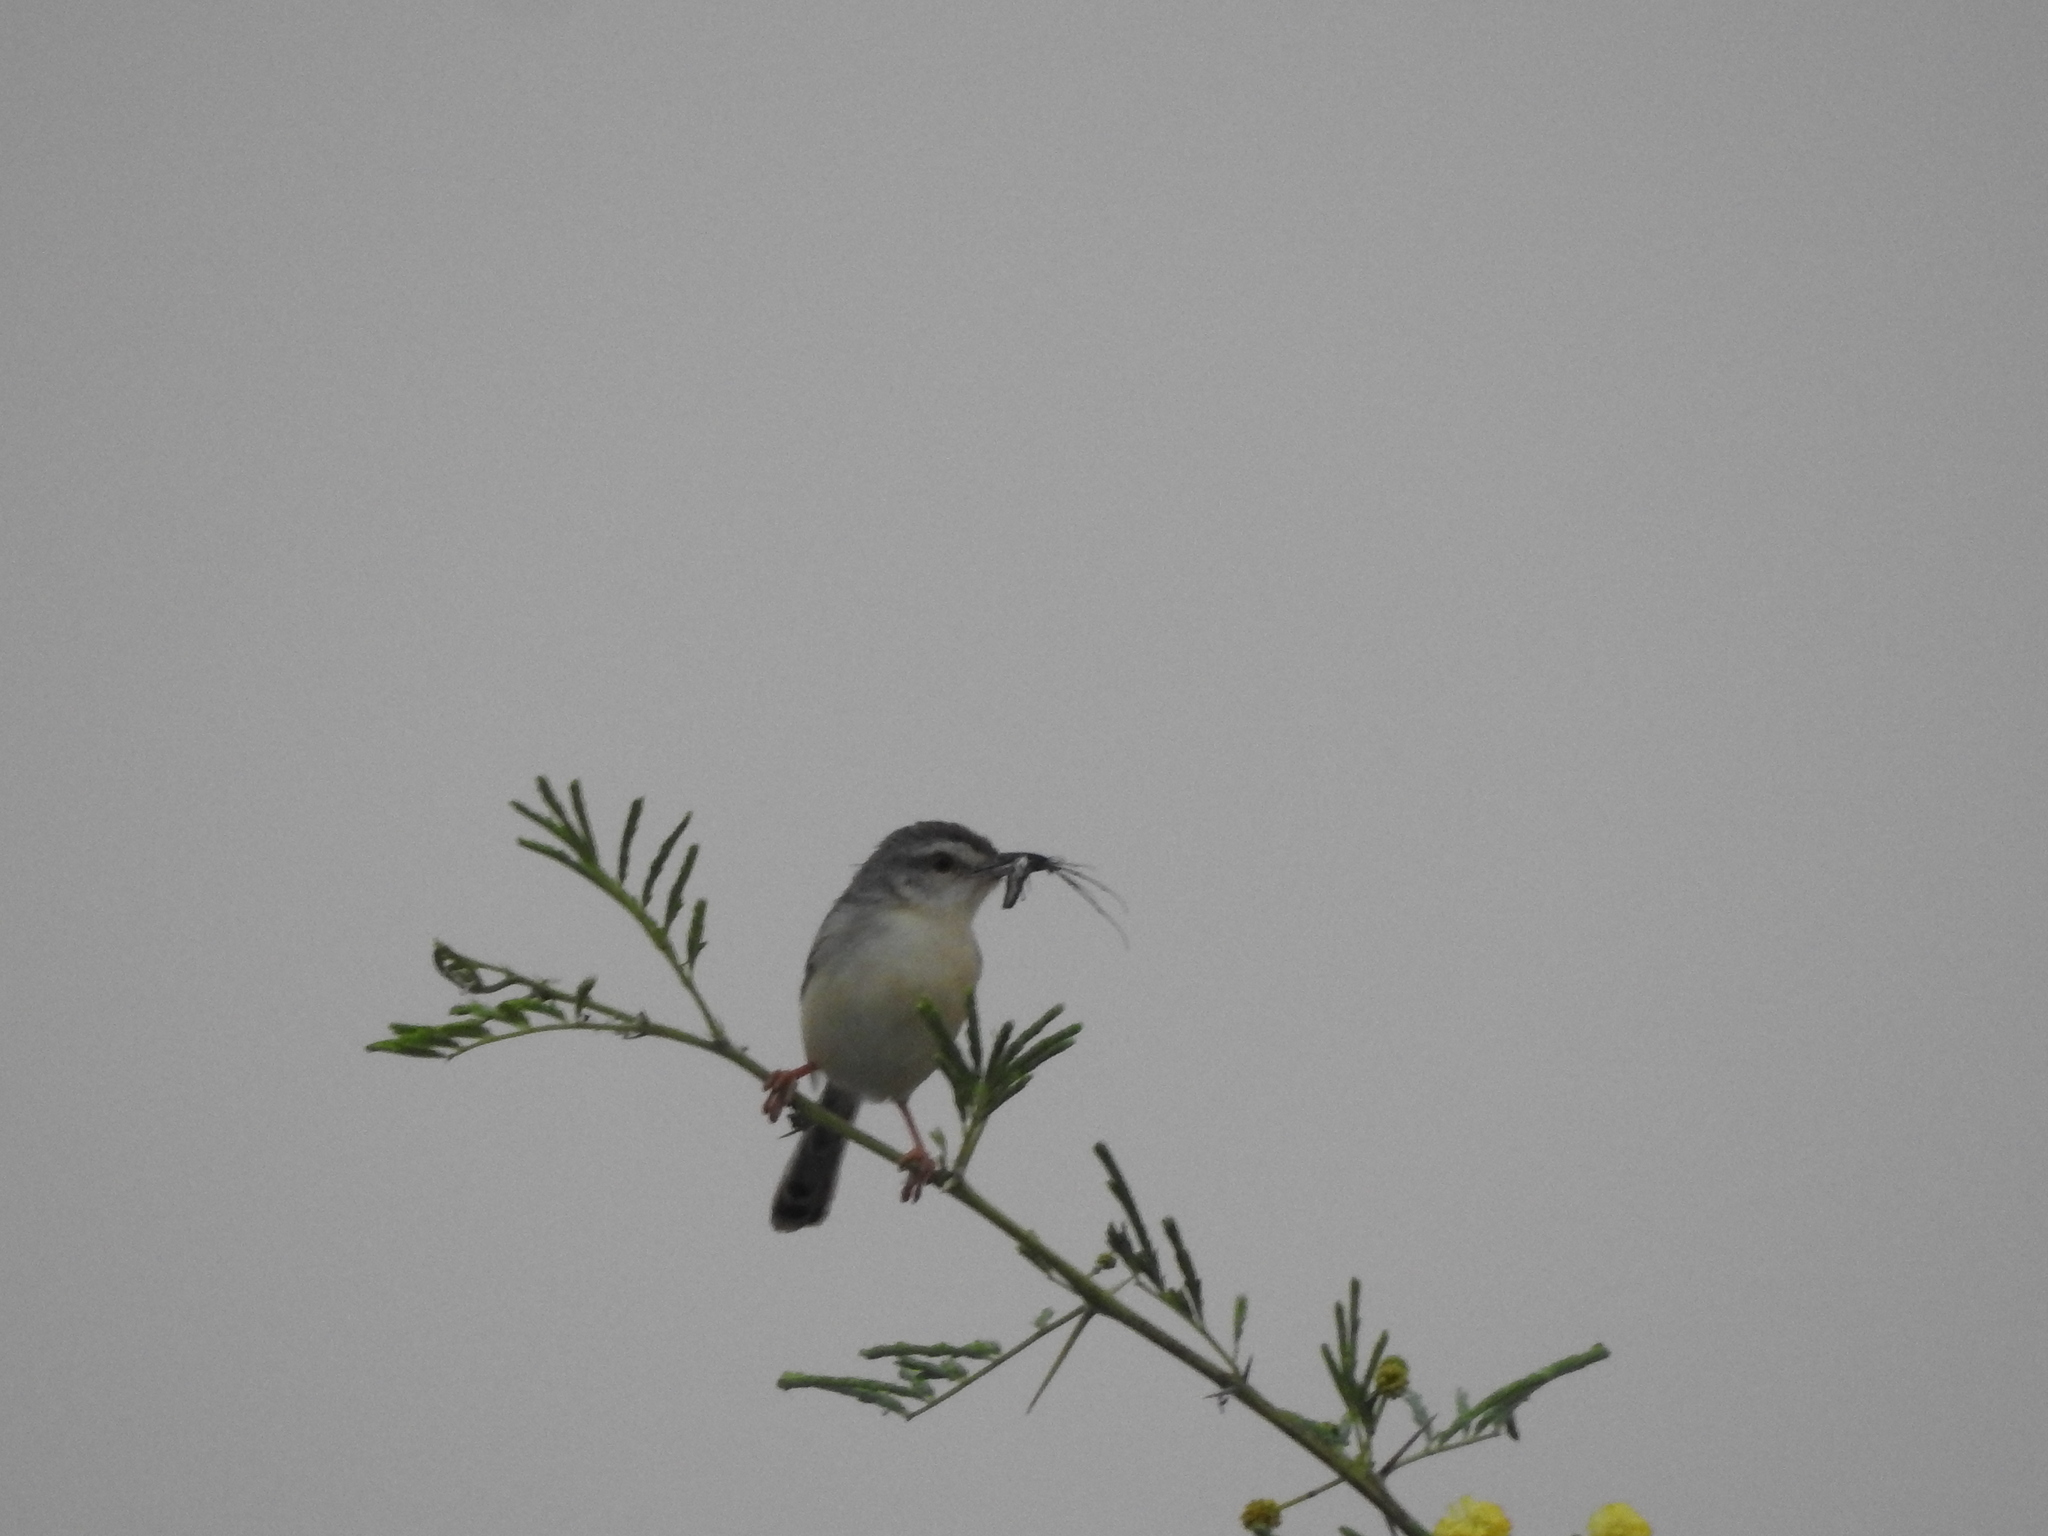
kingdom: Animalia
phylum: Chordata
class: Aves
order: Passeriformes
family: Cisticolidae
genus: Prinia
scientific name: Prinia inornata
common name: Plain prinia
